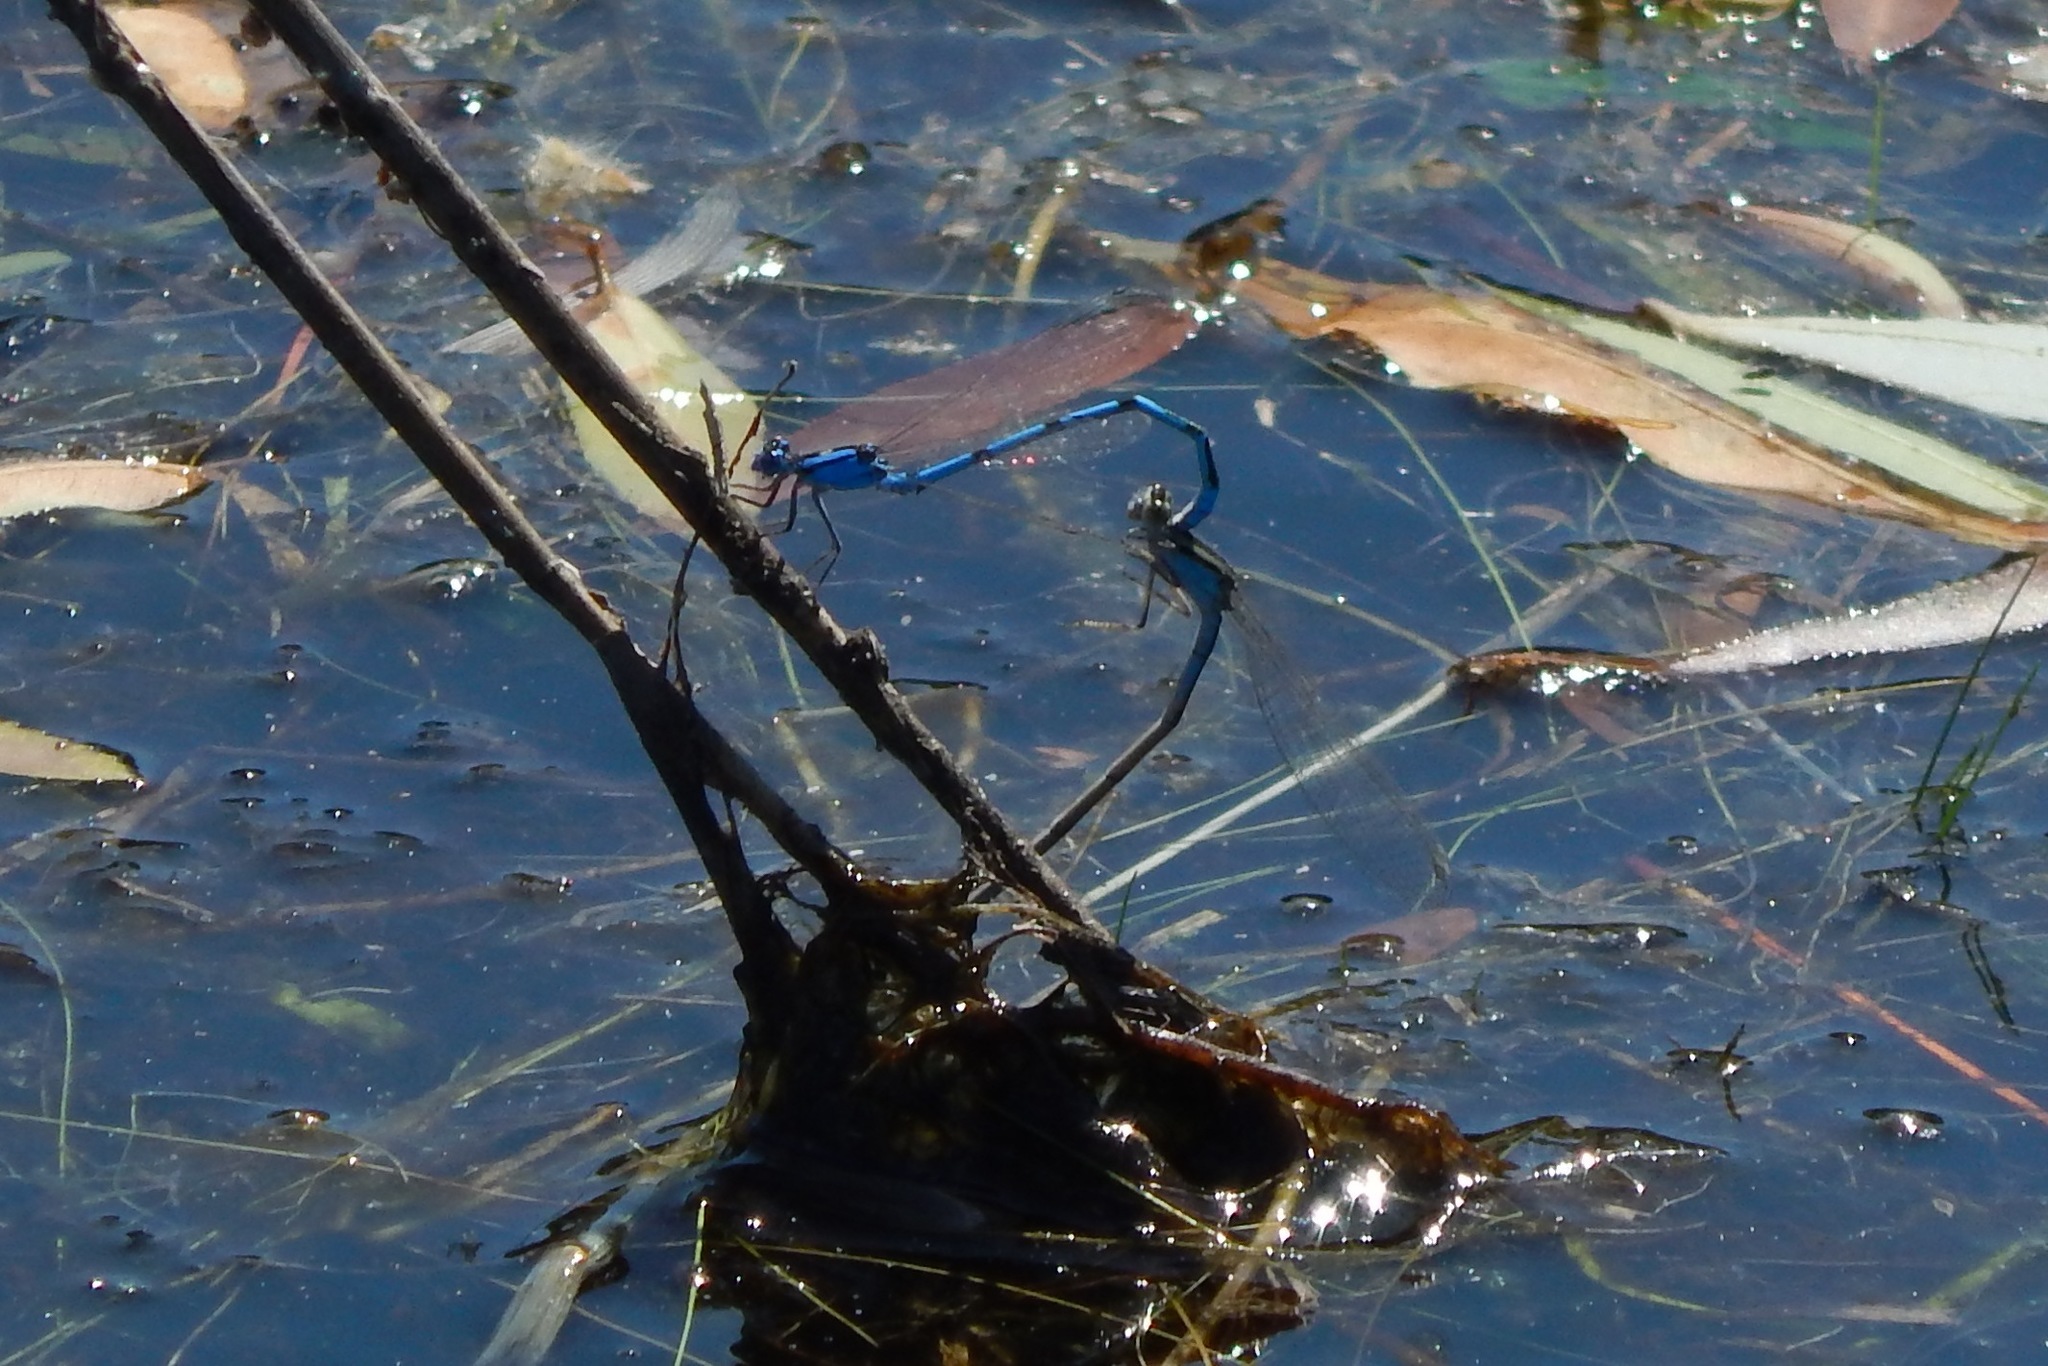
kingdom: Animalia
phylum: Arthropoda
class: Insecta
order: Odonata
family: Coenagrionidae
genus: Enallagma
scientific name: Enallagma
